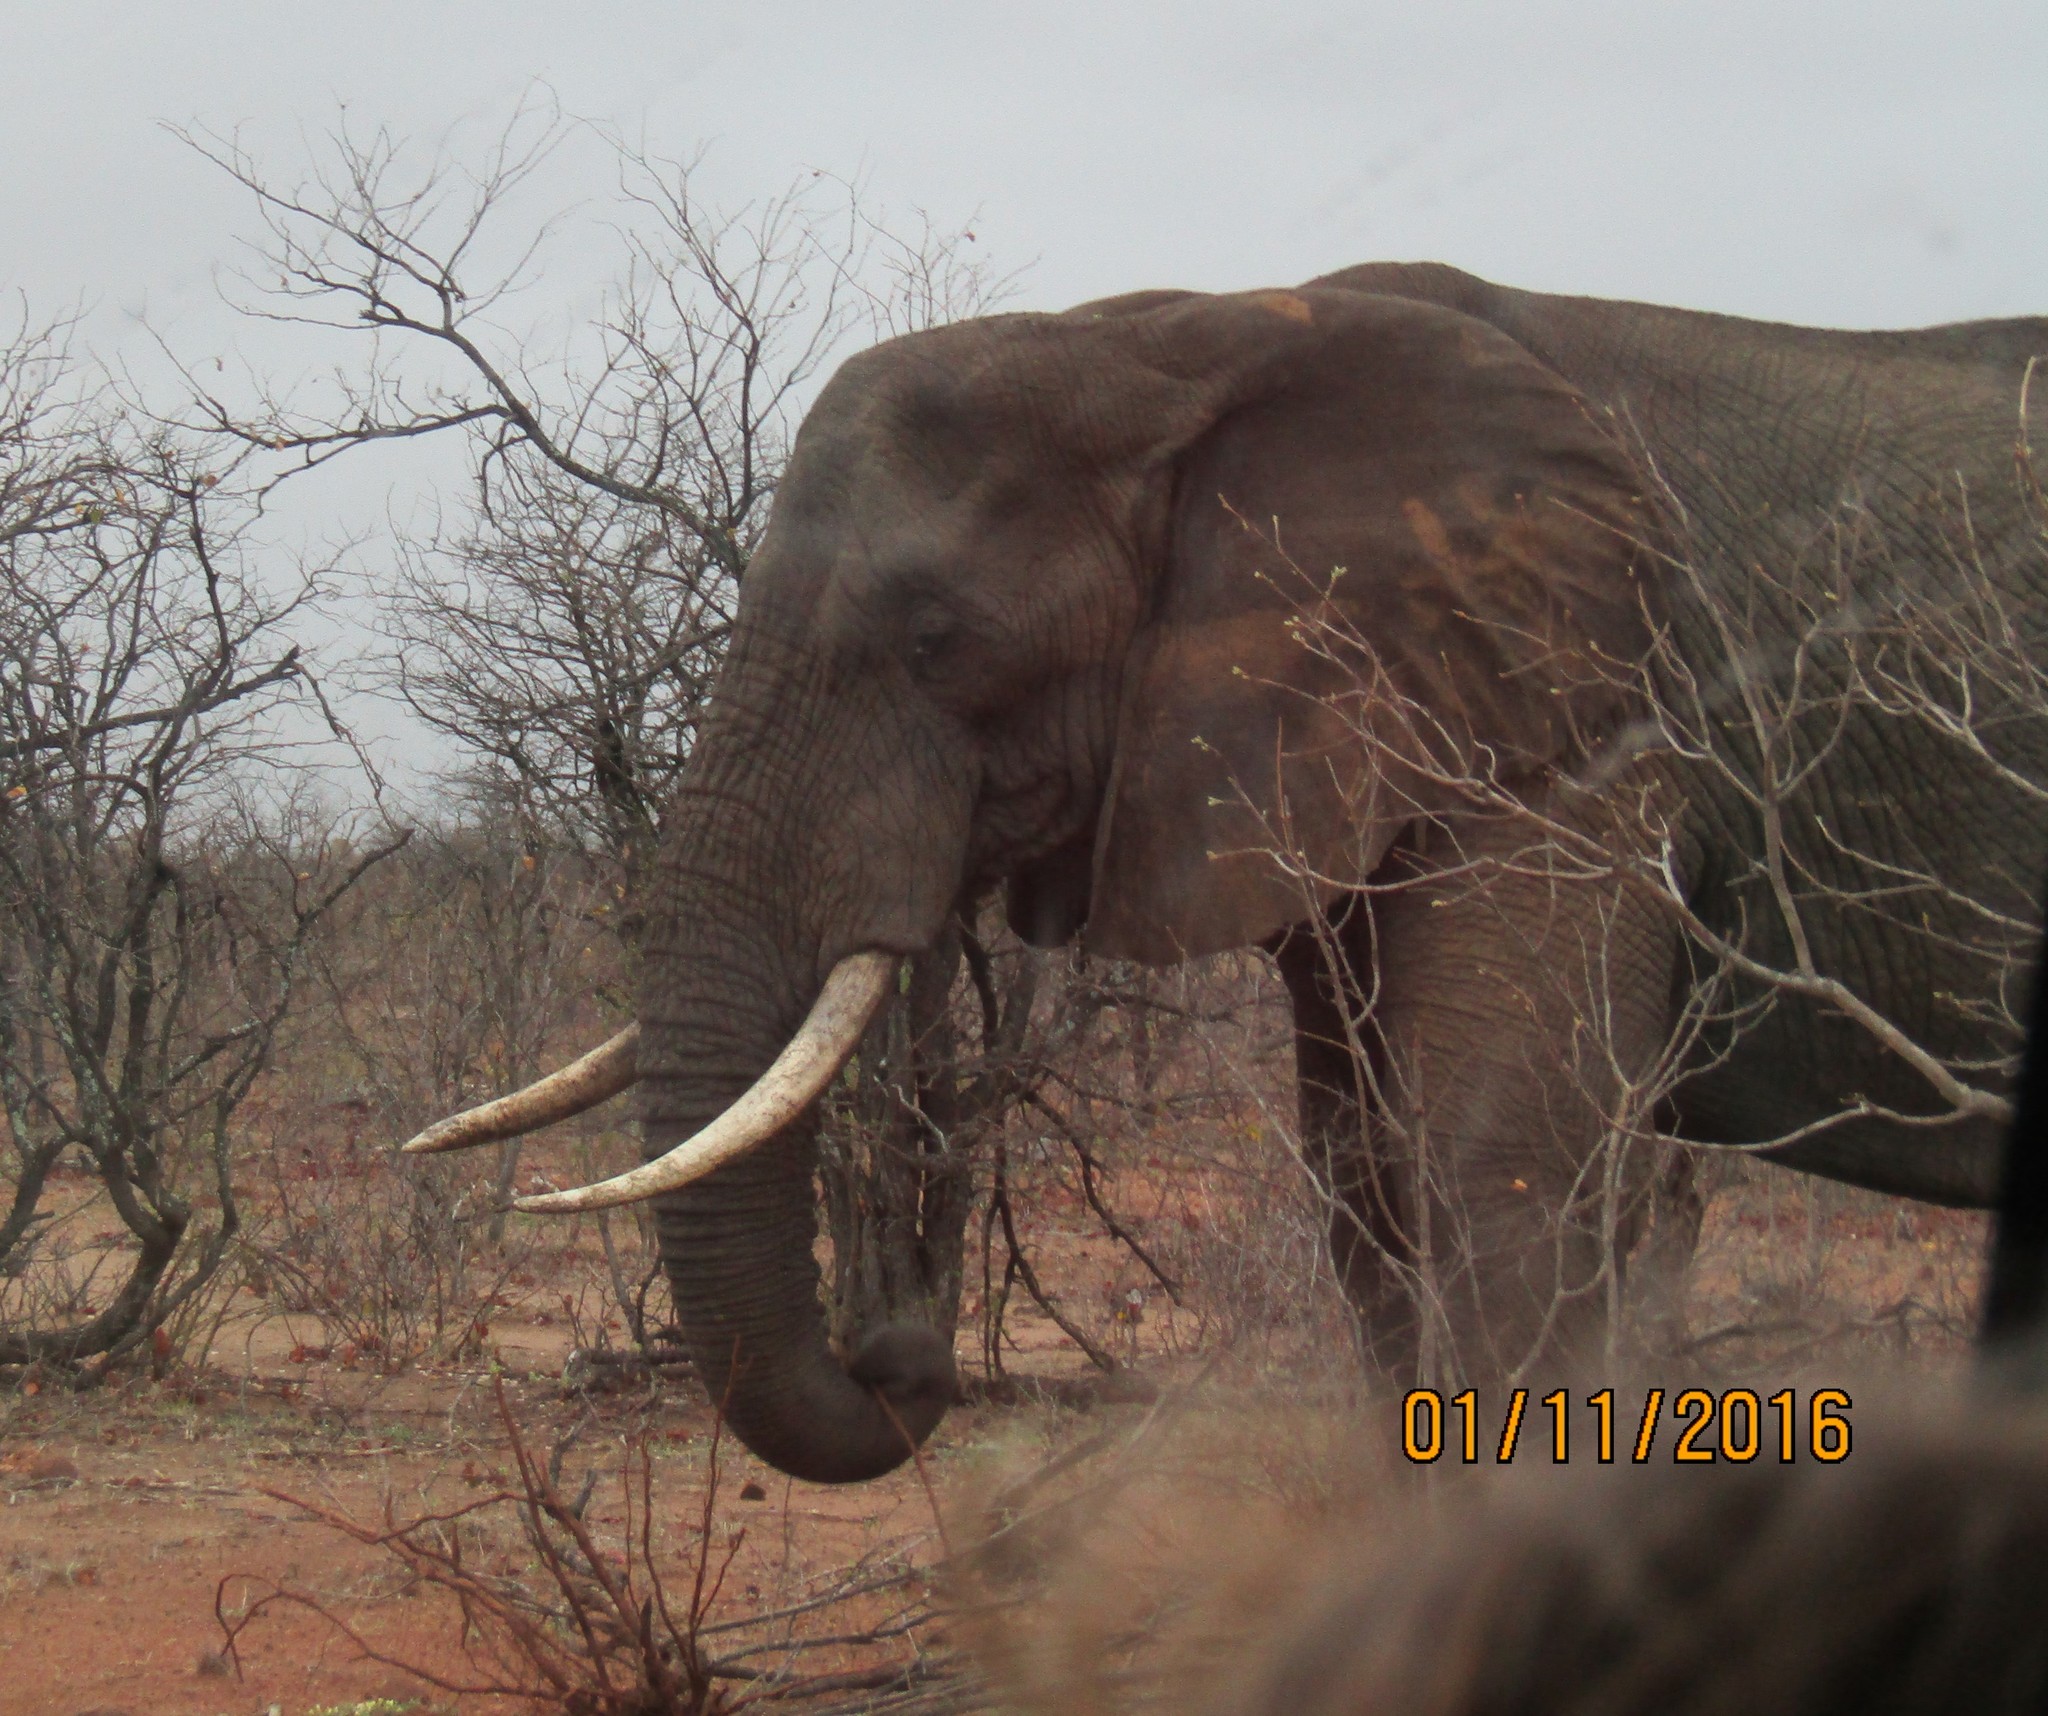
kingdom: Animalia
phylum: Chordata
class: Mammalia
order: Proboscidea
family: Elephantidae
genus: Loxodonta
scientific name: Loxodonta africana
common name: African elephant
